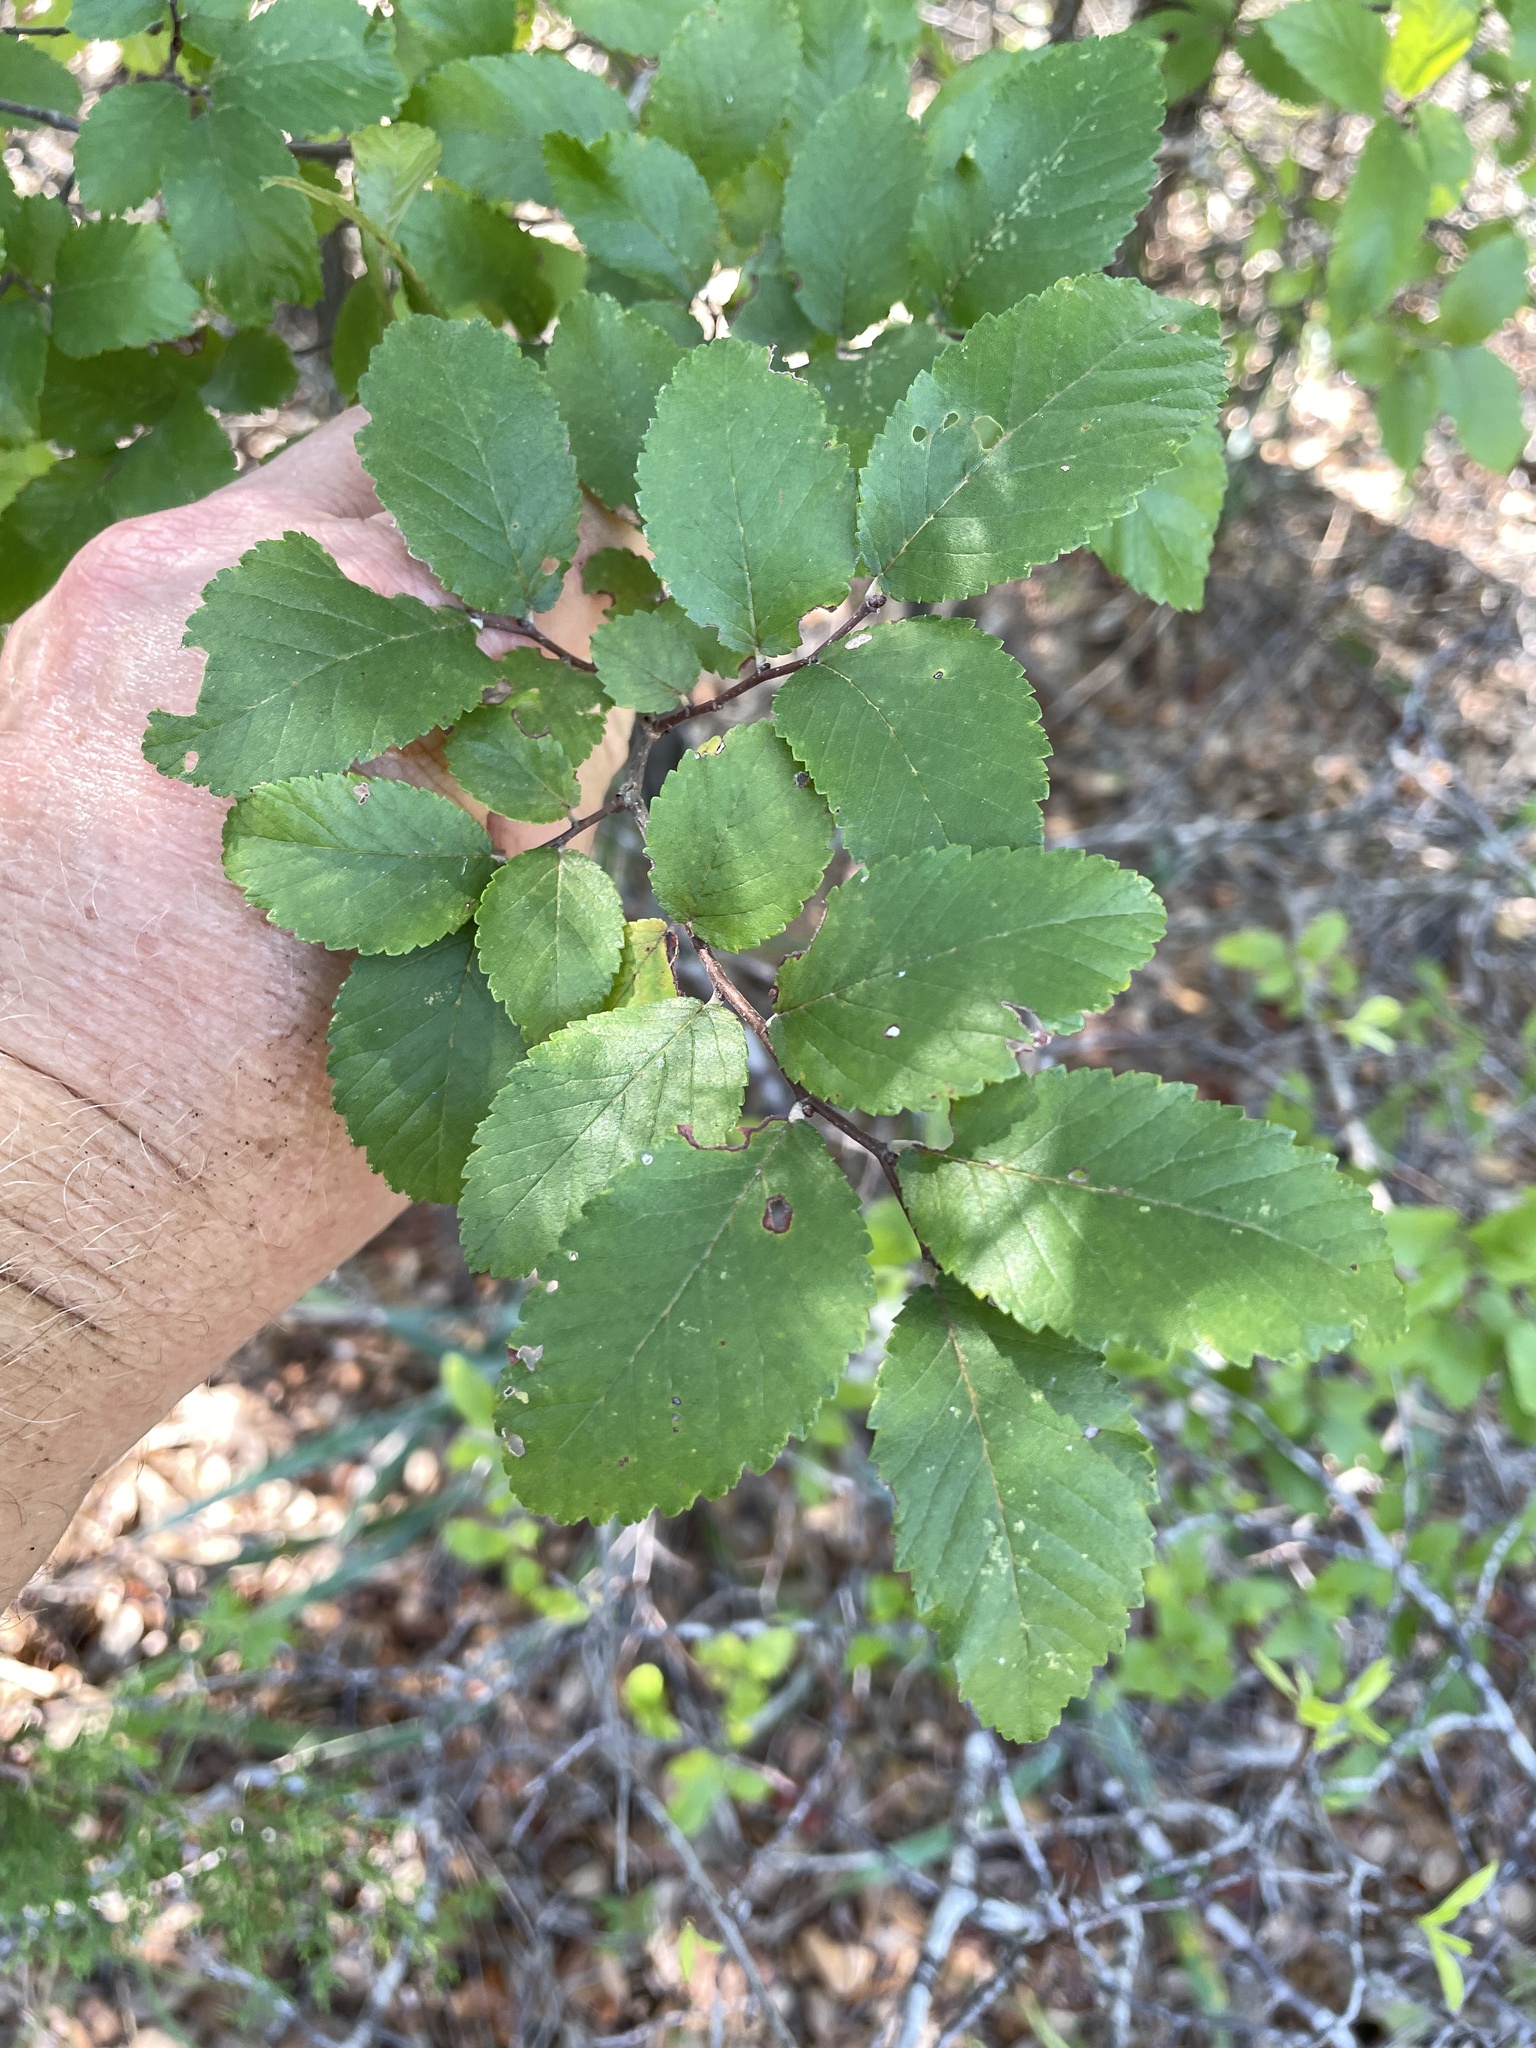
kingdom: Plantae
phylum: Tracheophyta
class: Magnoliopsida
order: Rosales
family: Ulmaceae
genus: Ulmus
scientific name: Ulmus crassifolia
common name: Basket elm
